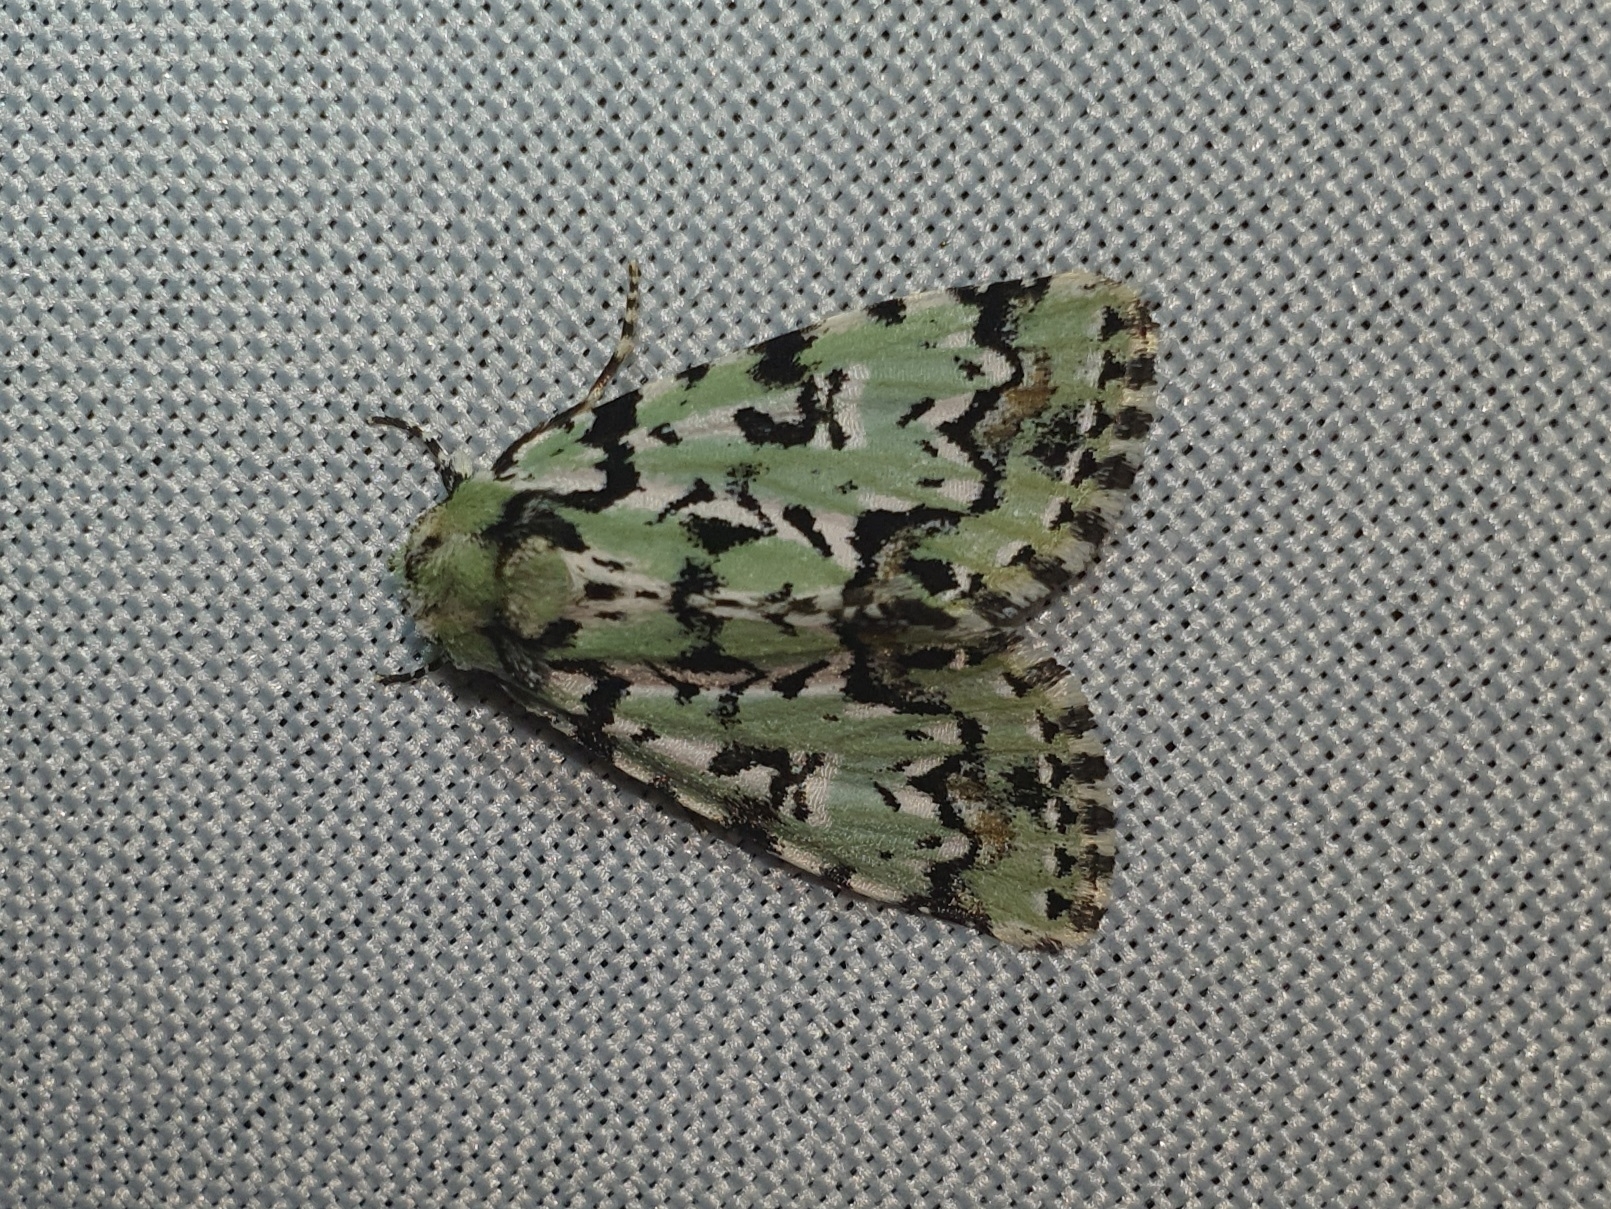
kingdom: Animalia
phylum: Arthropoda
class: Insecta
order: Lepidoptera
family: Noctuidae
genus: Moma
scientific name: Moma alpium
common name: Scarce merveille du jour
